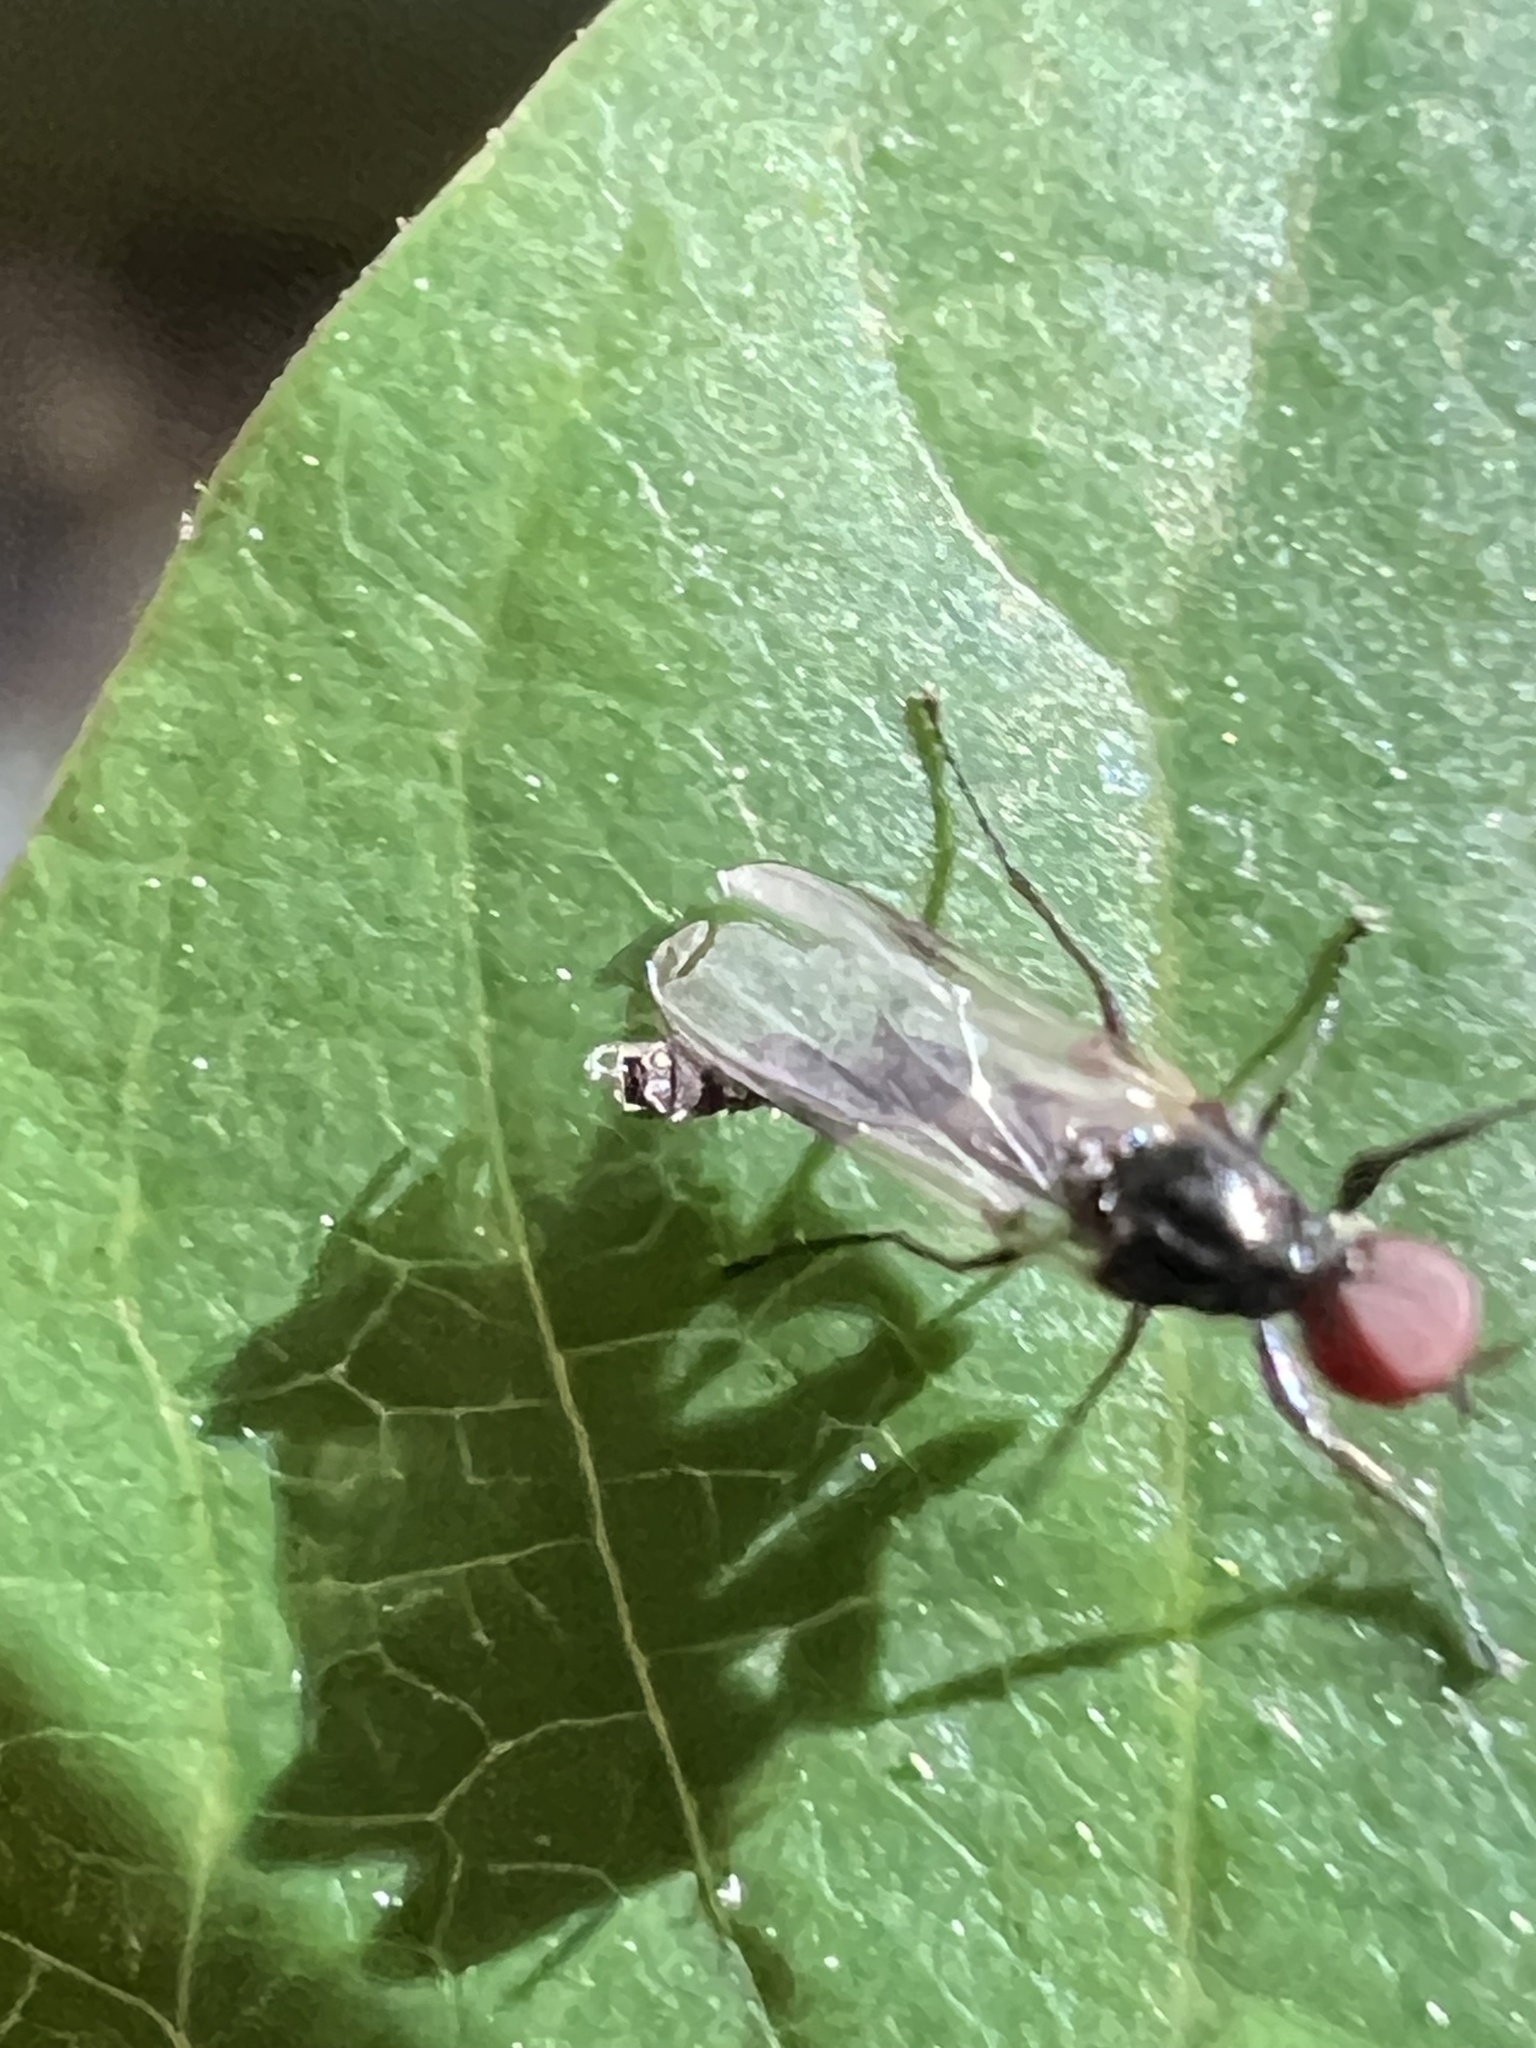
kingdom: Animalia
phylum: Arthropoda
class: Insecta
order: Diptera
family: Bibionidae
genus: Dilophus
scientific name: Dilophus
